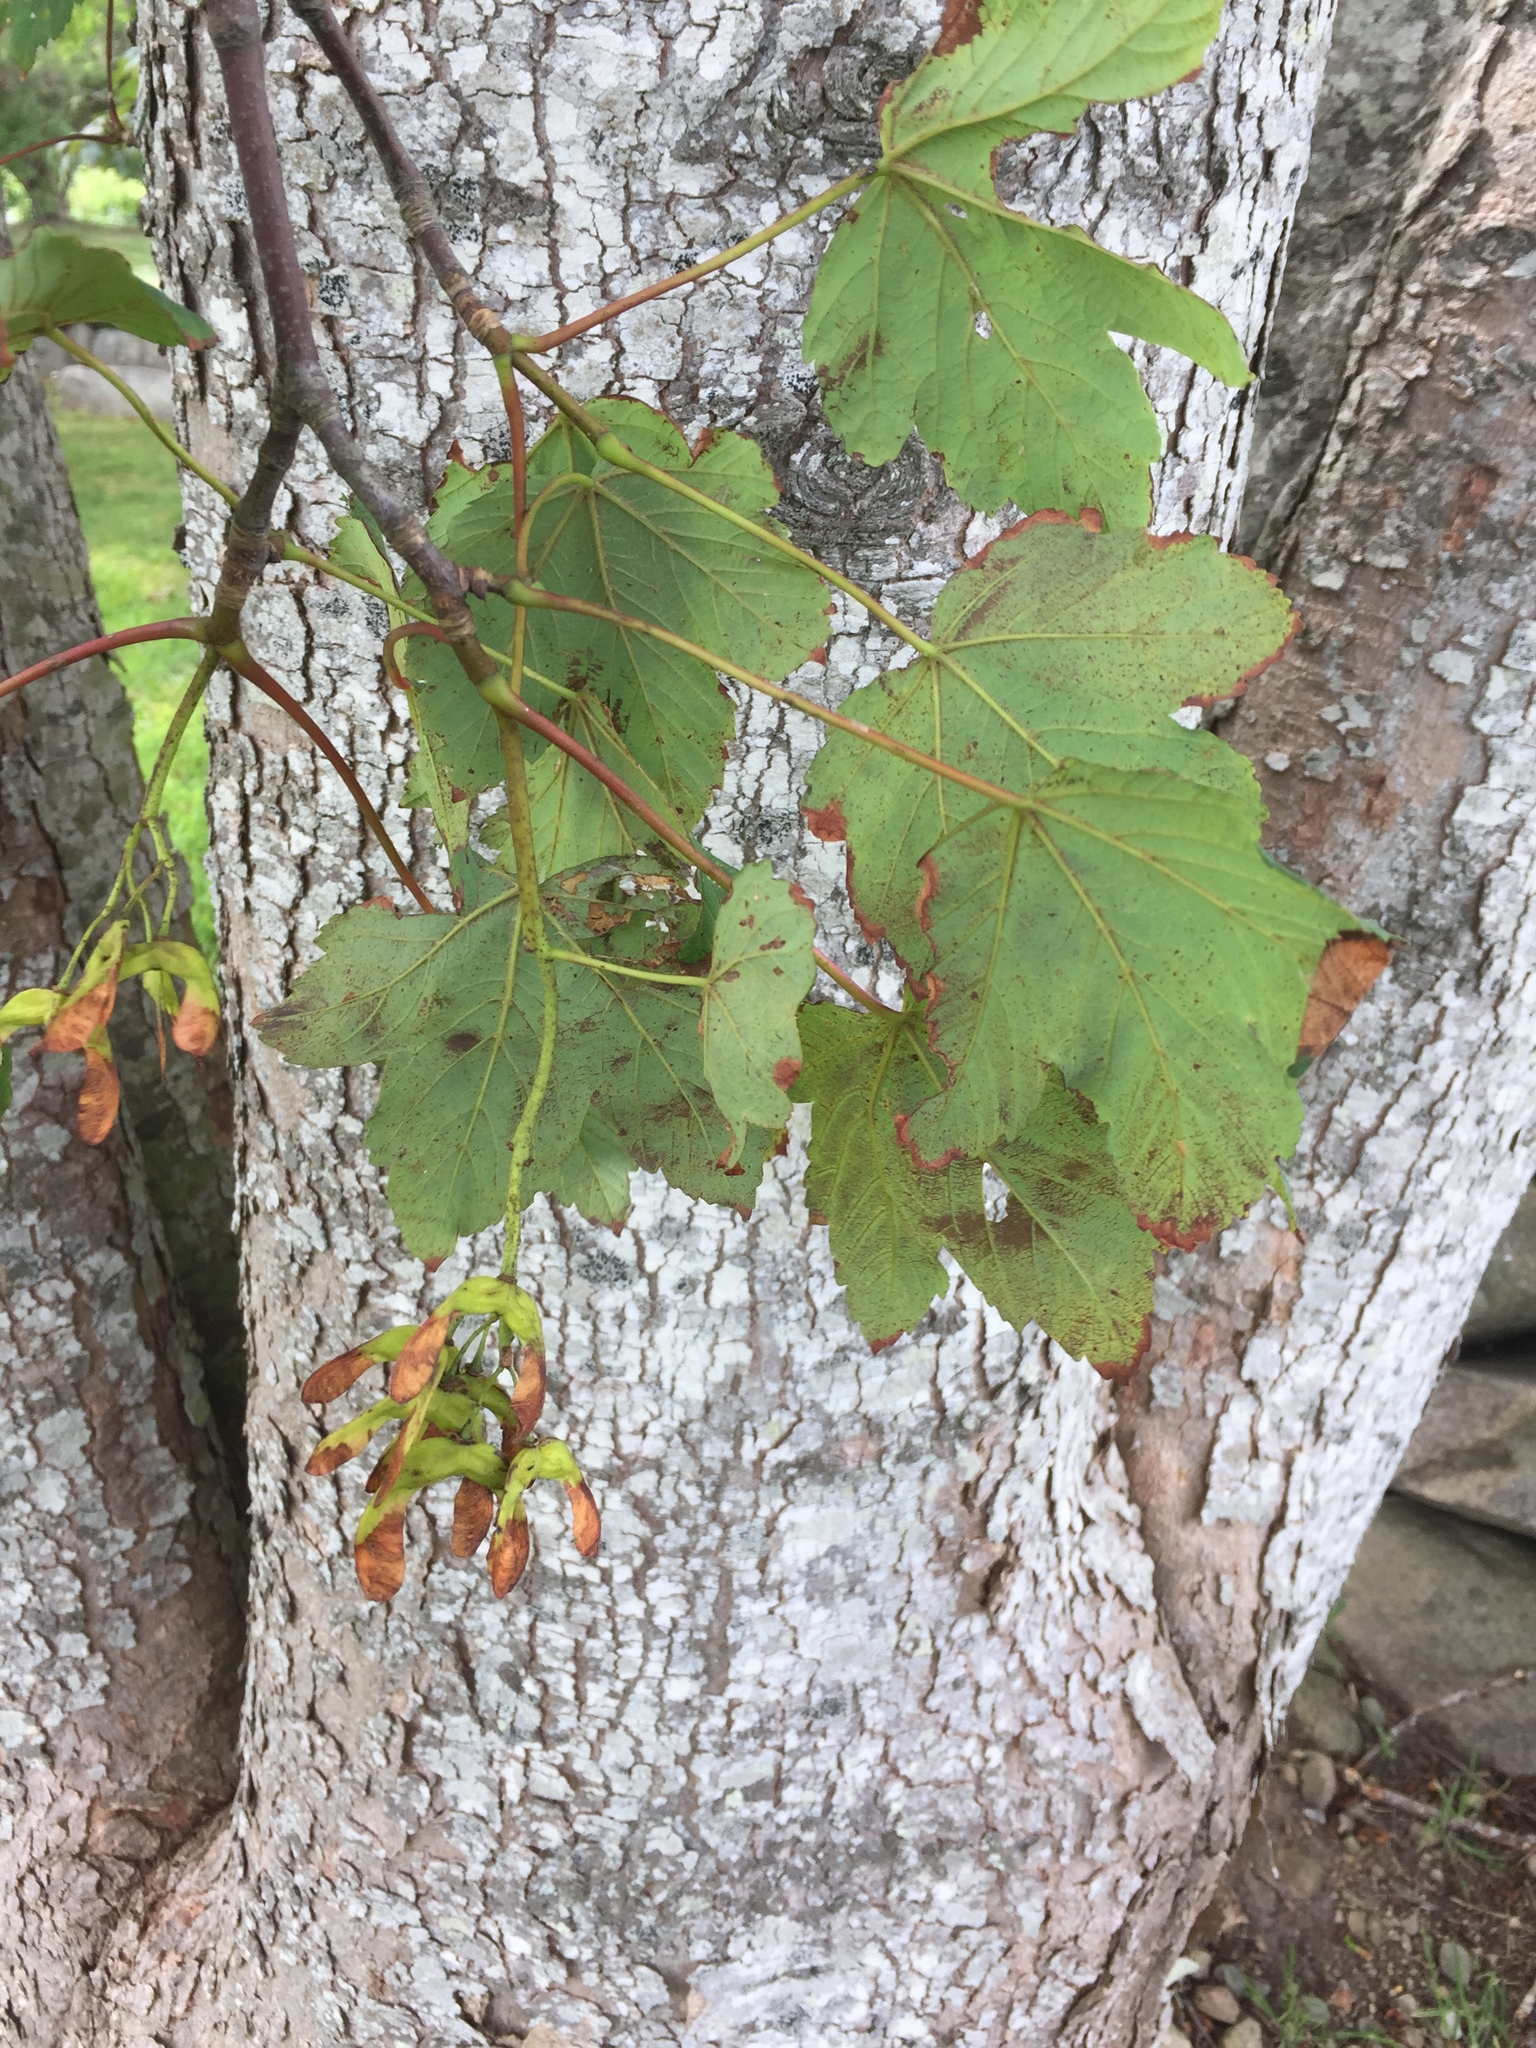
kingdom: Plantae
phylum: Tracheophyta
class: Magnoliopsida
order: Sapindales
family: Sapindaceae
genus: Acer
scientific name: Acer rubrum
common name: Red maple
